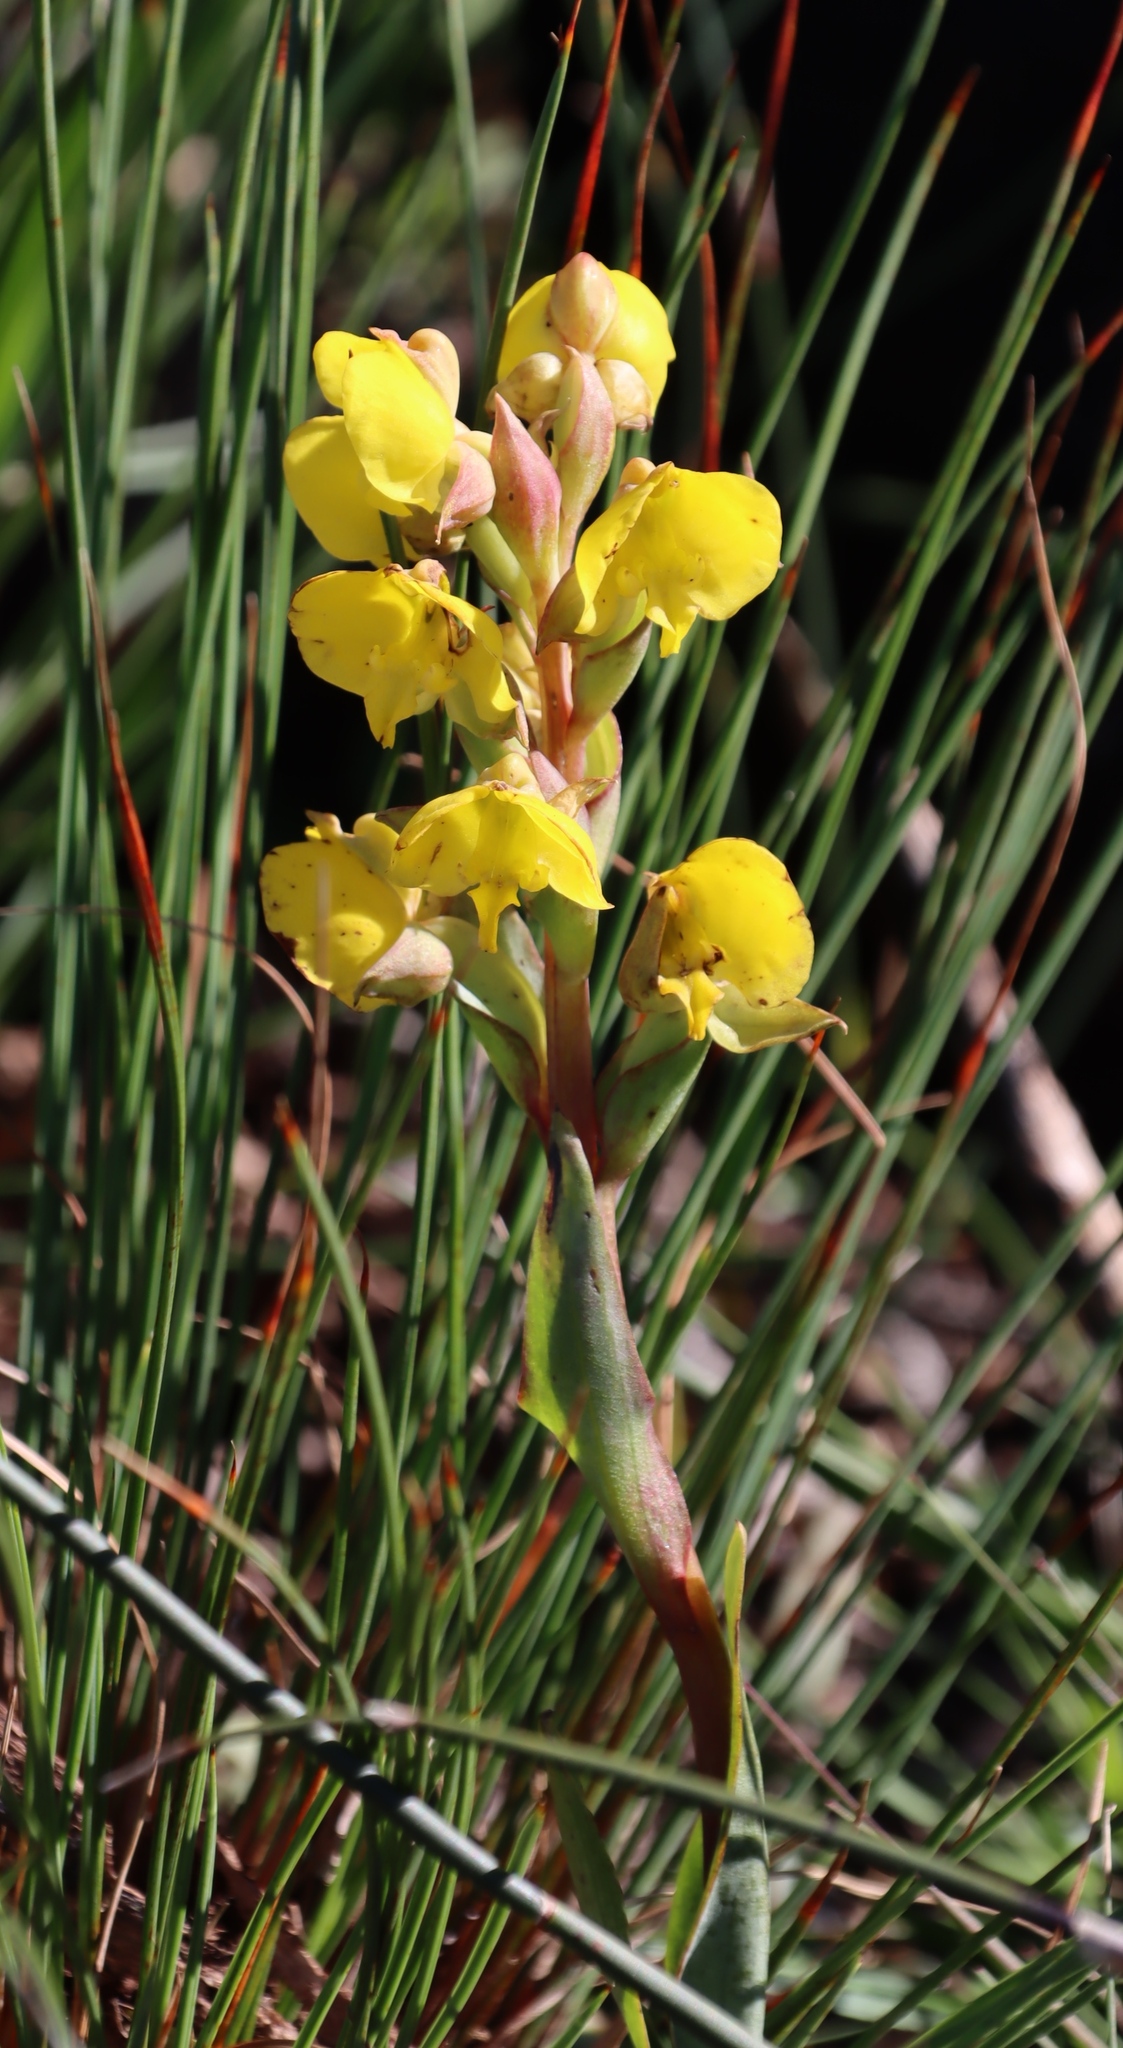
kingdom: Plantae
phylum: Tracheophyta
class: Liliopsida
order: Asparagales
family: Orchidaceae
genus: Pterygodium
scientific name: Pterygodium acutifolium
